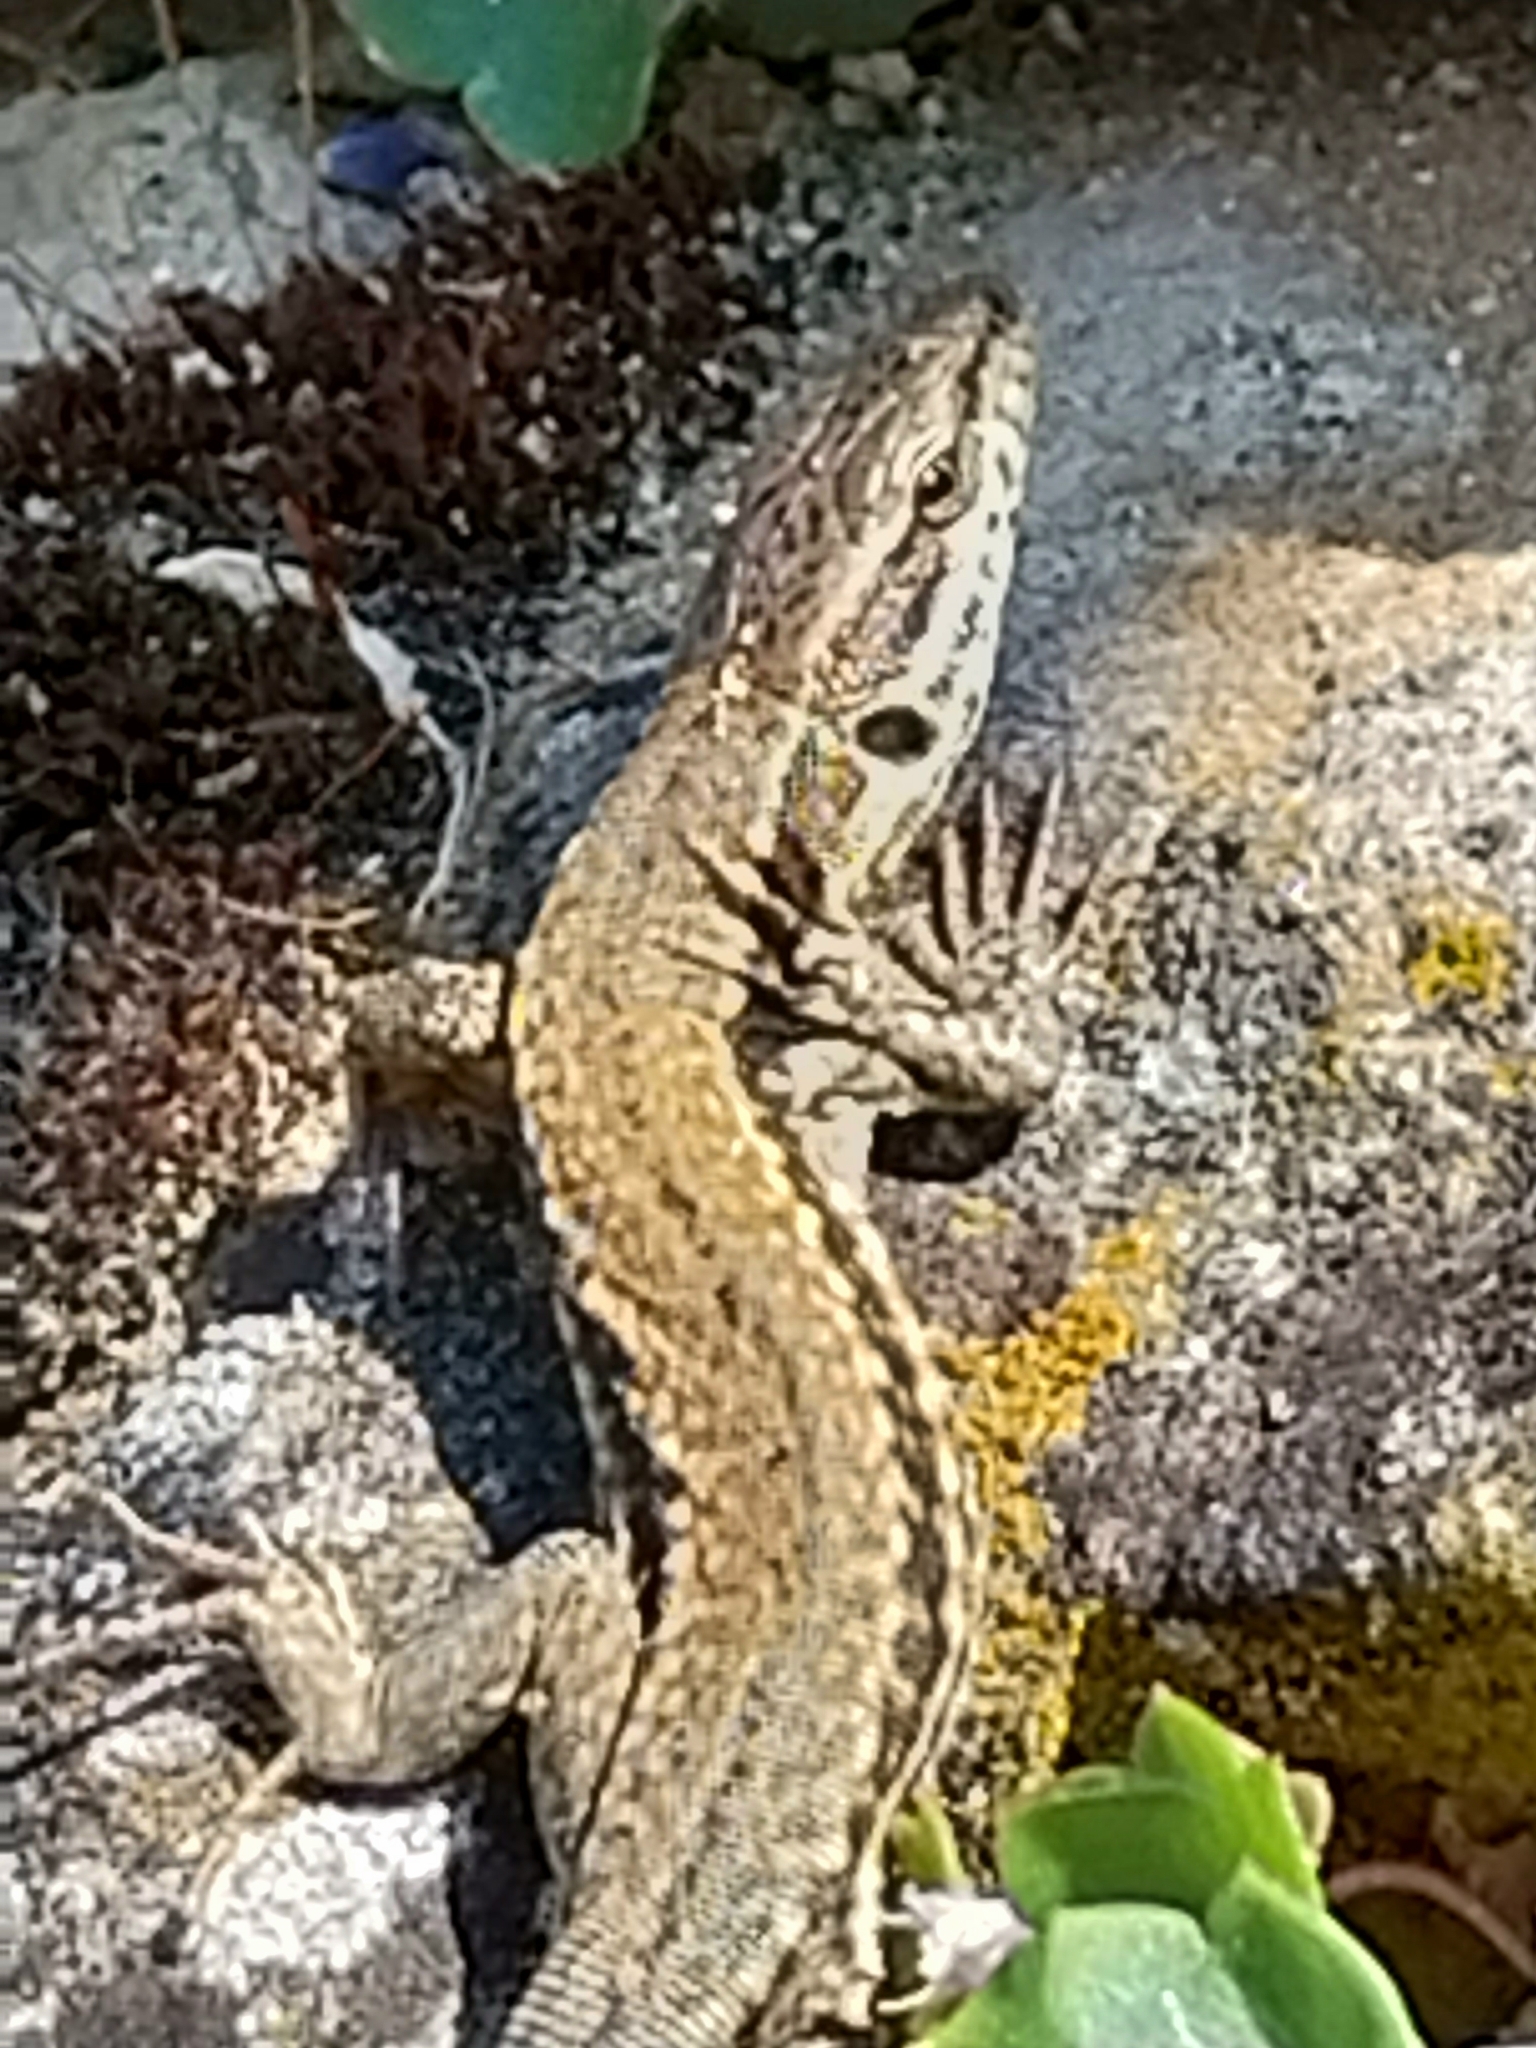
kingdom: Animalia
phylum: Chordata
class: Squamata
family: Lacertidae
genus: Podarcis
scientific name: Podarcis muralis
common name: Common wall lizard
